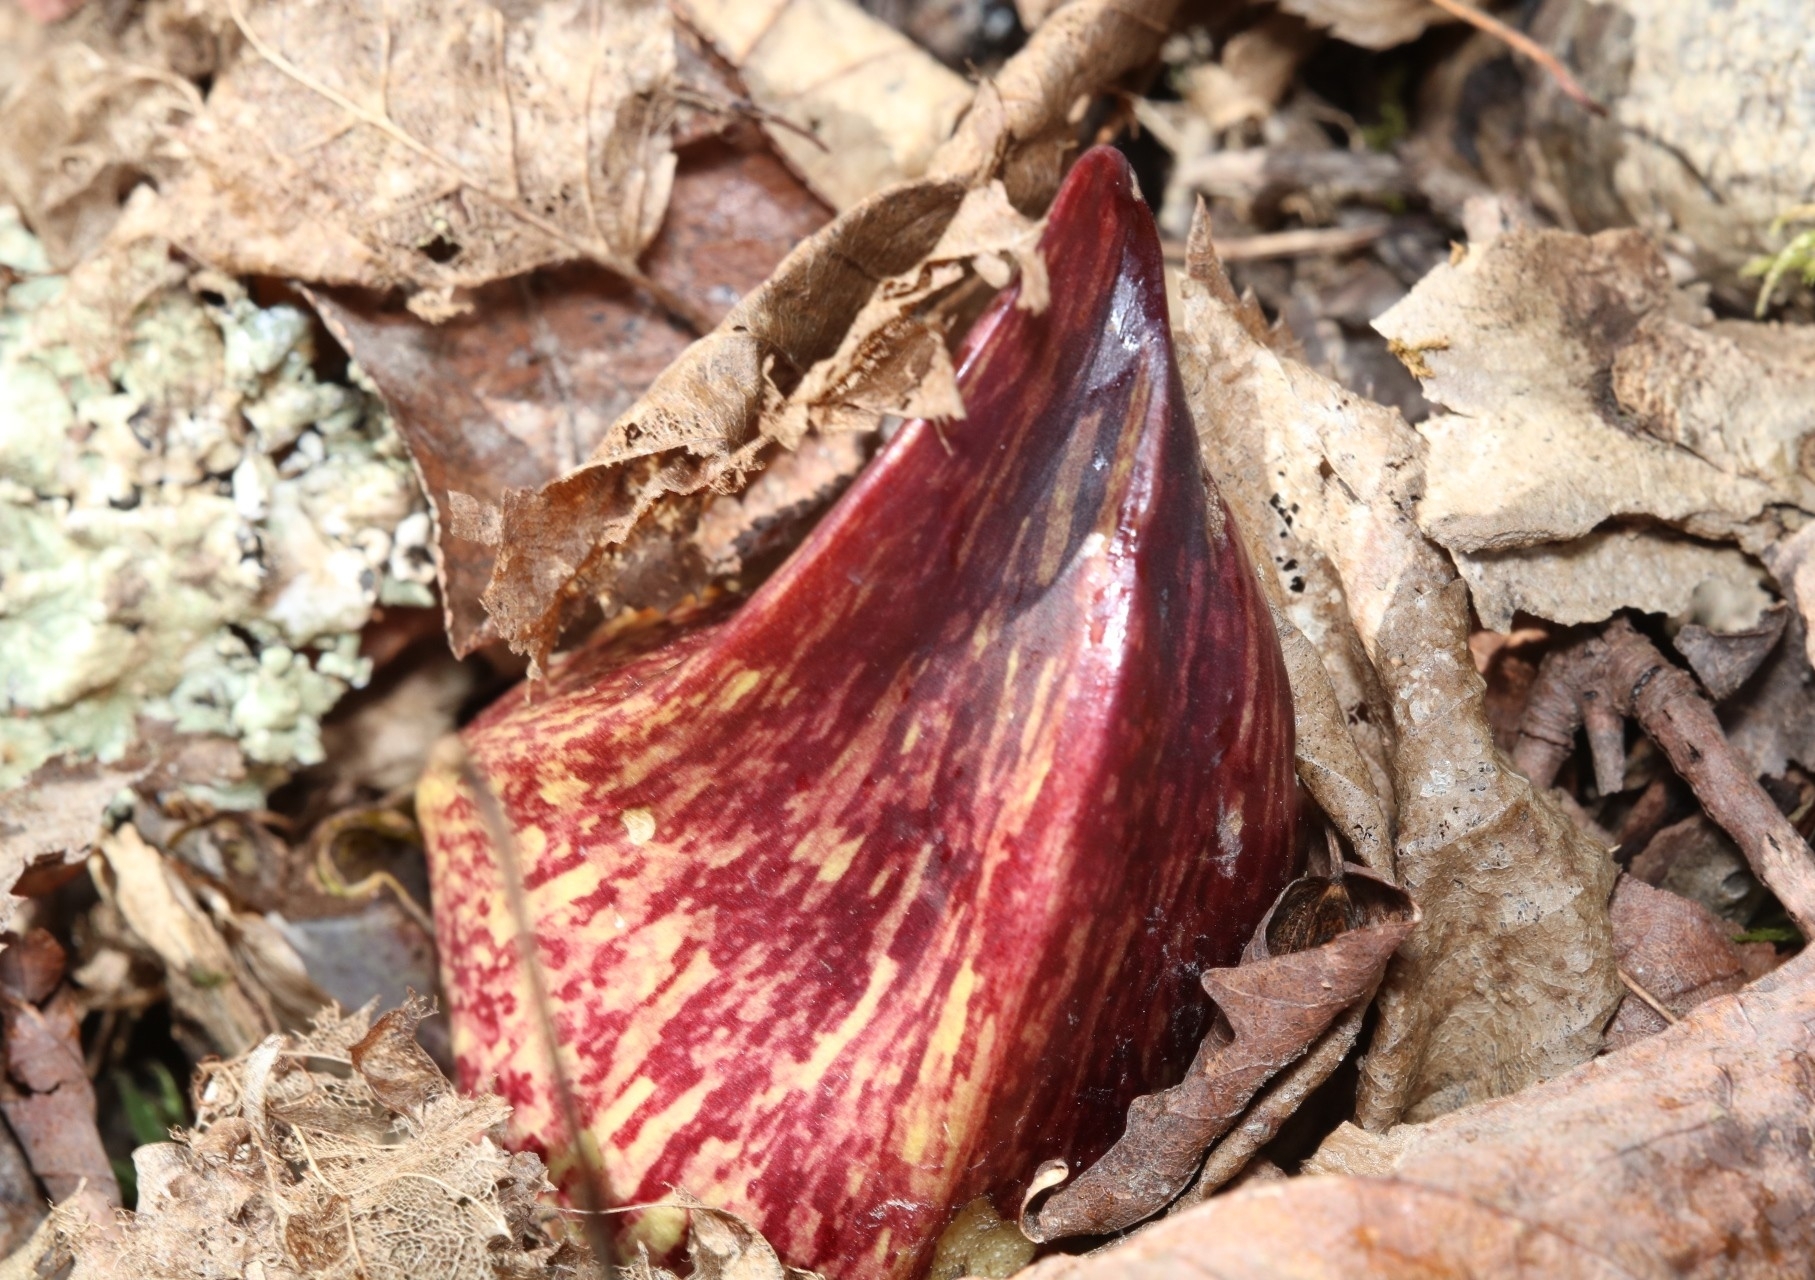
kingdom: Plantae
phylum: Tracheophyta
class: Liliopsida
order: Alismatales
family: Araceae
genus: Symplocarpus
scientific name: Symplocarpus foetidus
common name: Eastern skunk cabbage
